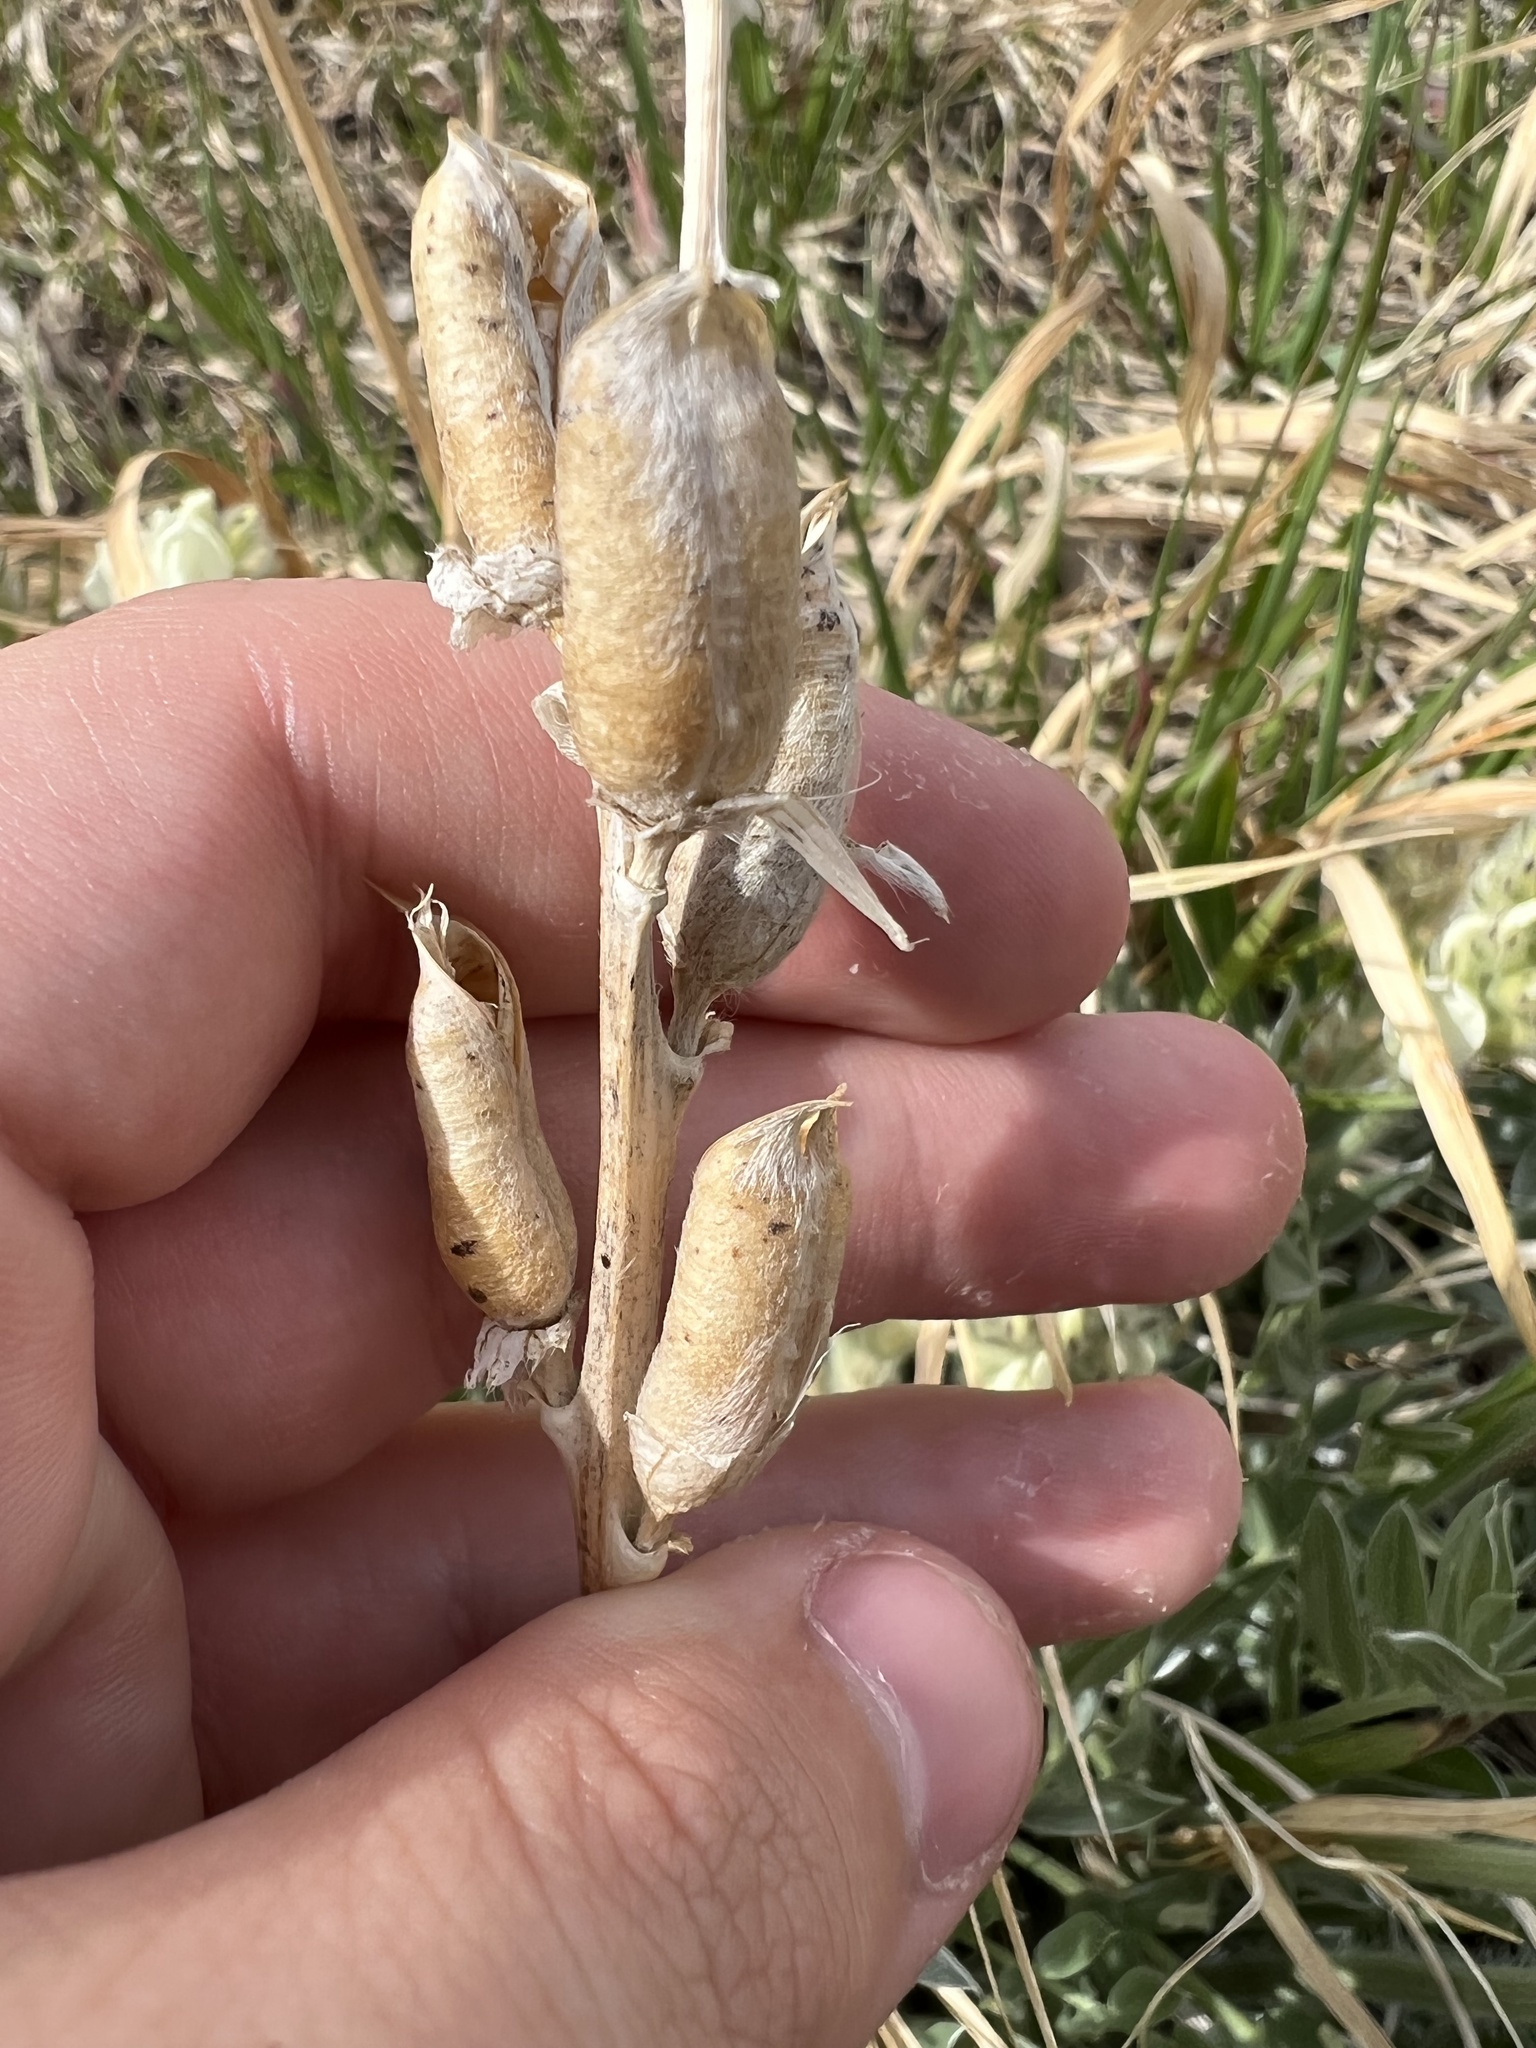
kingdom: Plantae
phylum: Tracheophyta
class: Magnoliopsida
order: Fabales
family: Fabaceae
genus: Oxytropis
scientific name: Oxytropis sericea
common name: Silky locoweed
